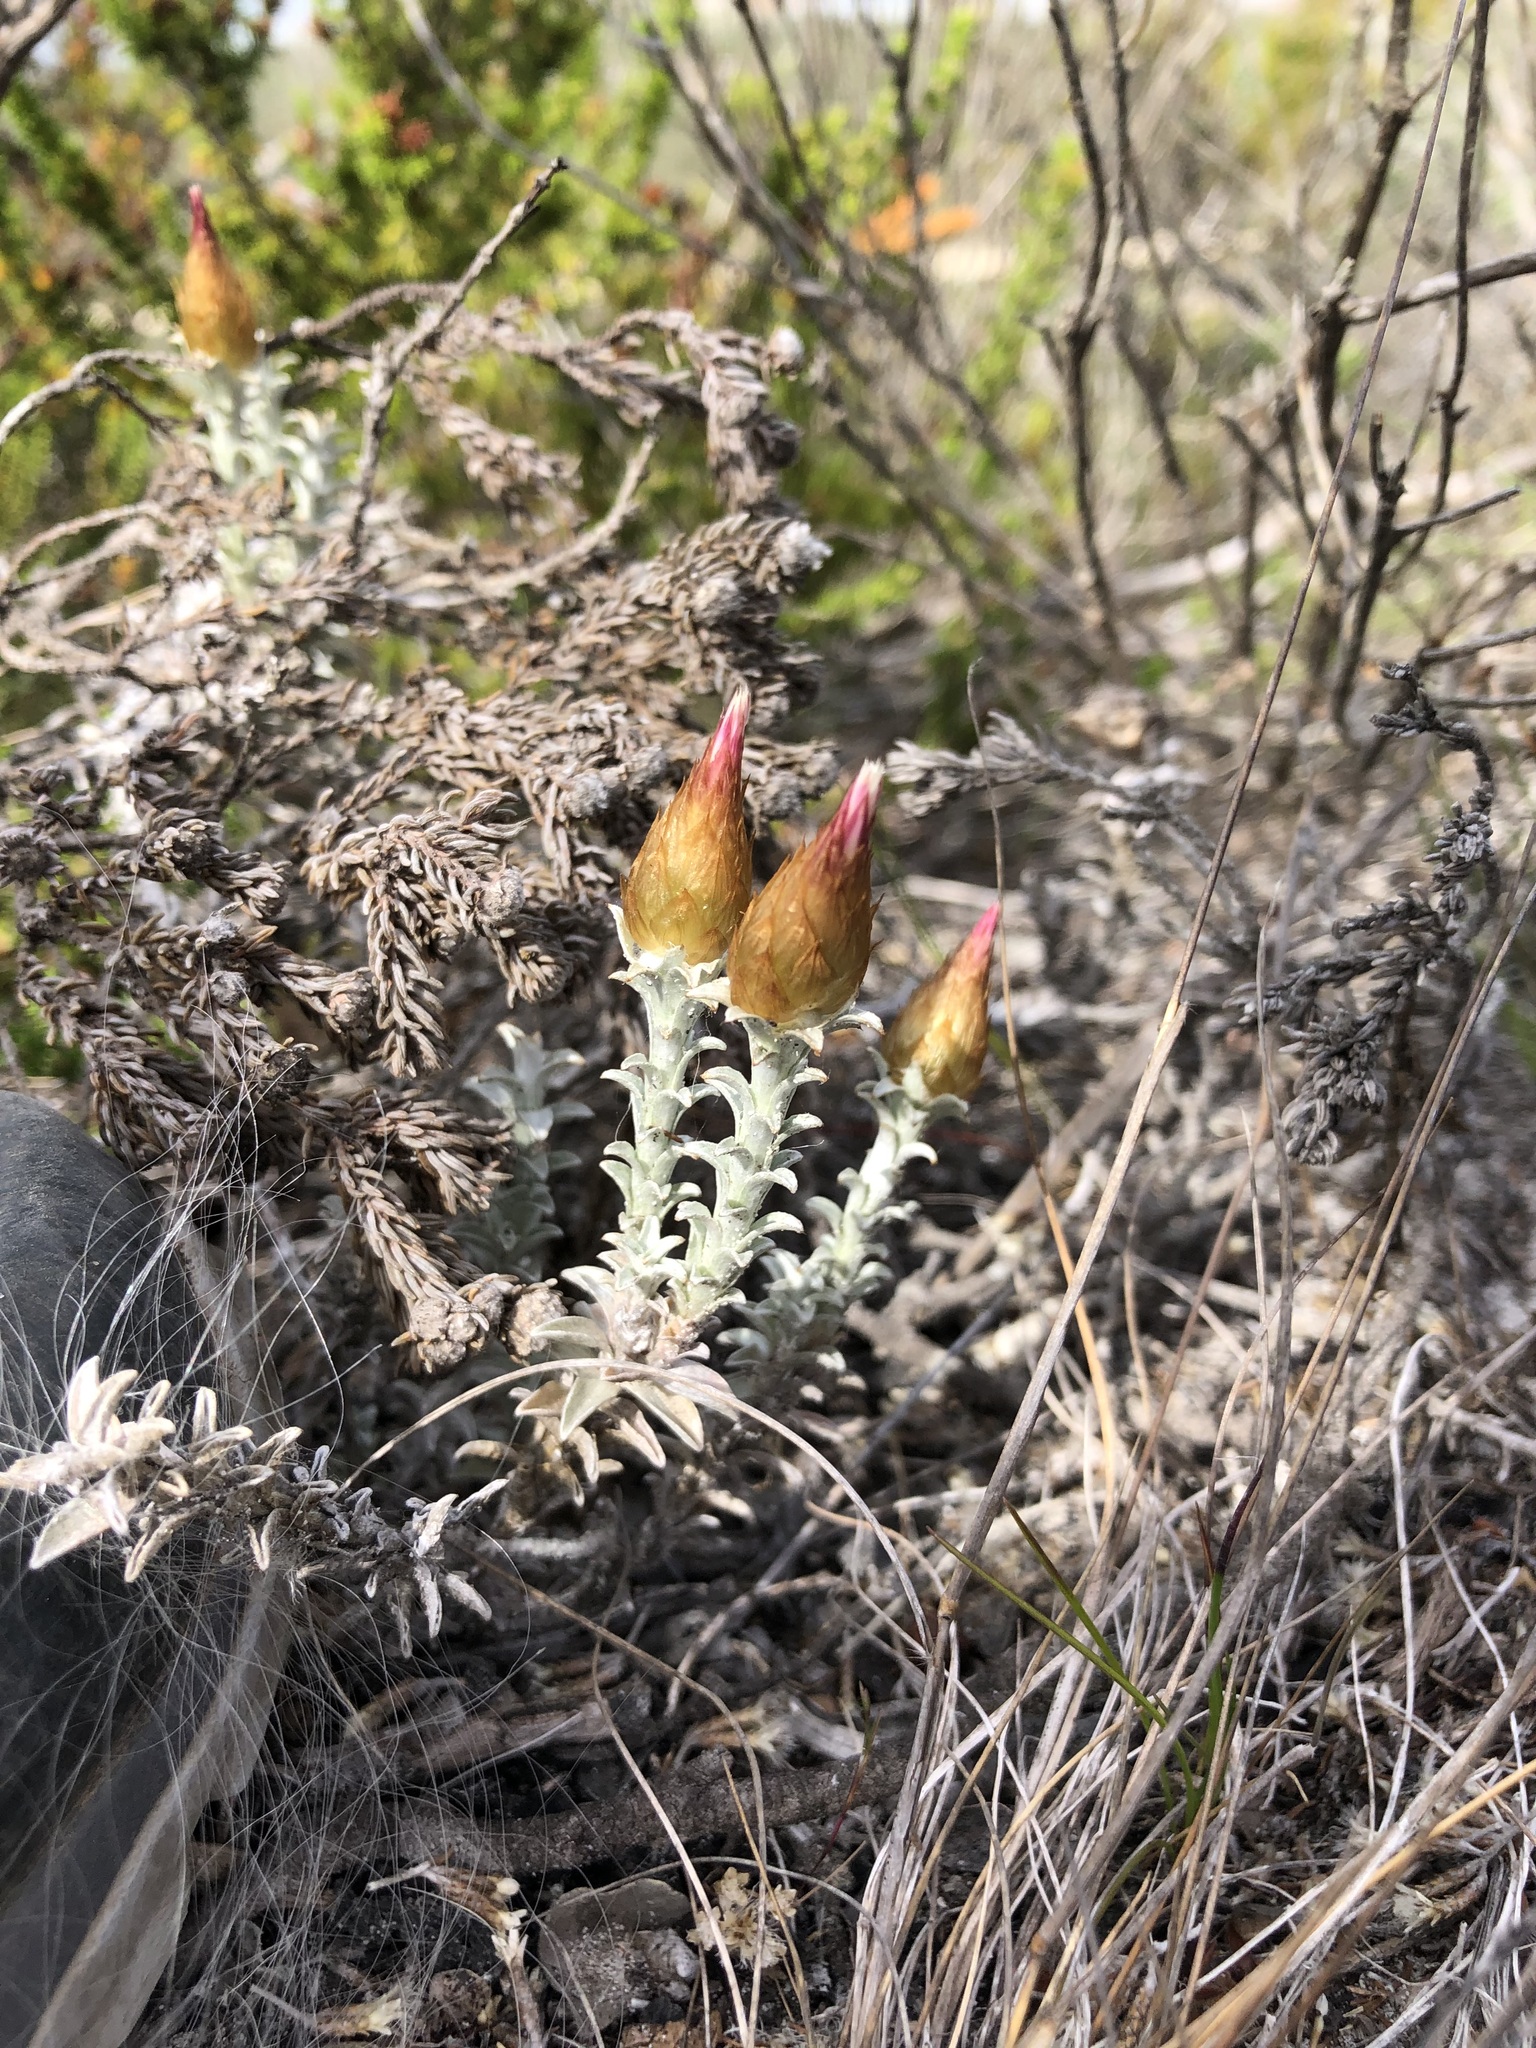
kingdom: Plantae
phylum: Tracheophyta
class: Magnoliopsida
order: Asterales
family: Asteraceae
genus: Helichrysum
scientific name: Helichrysum retortum
